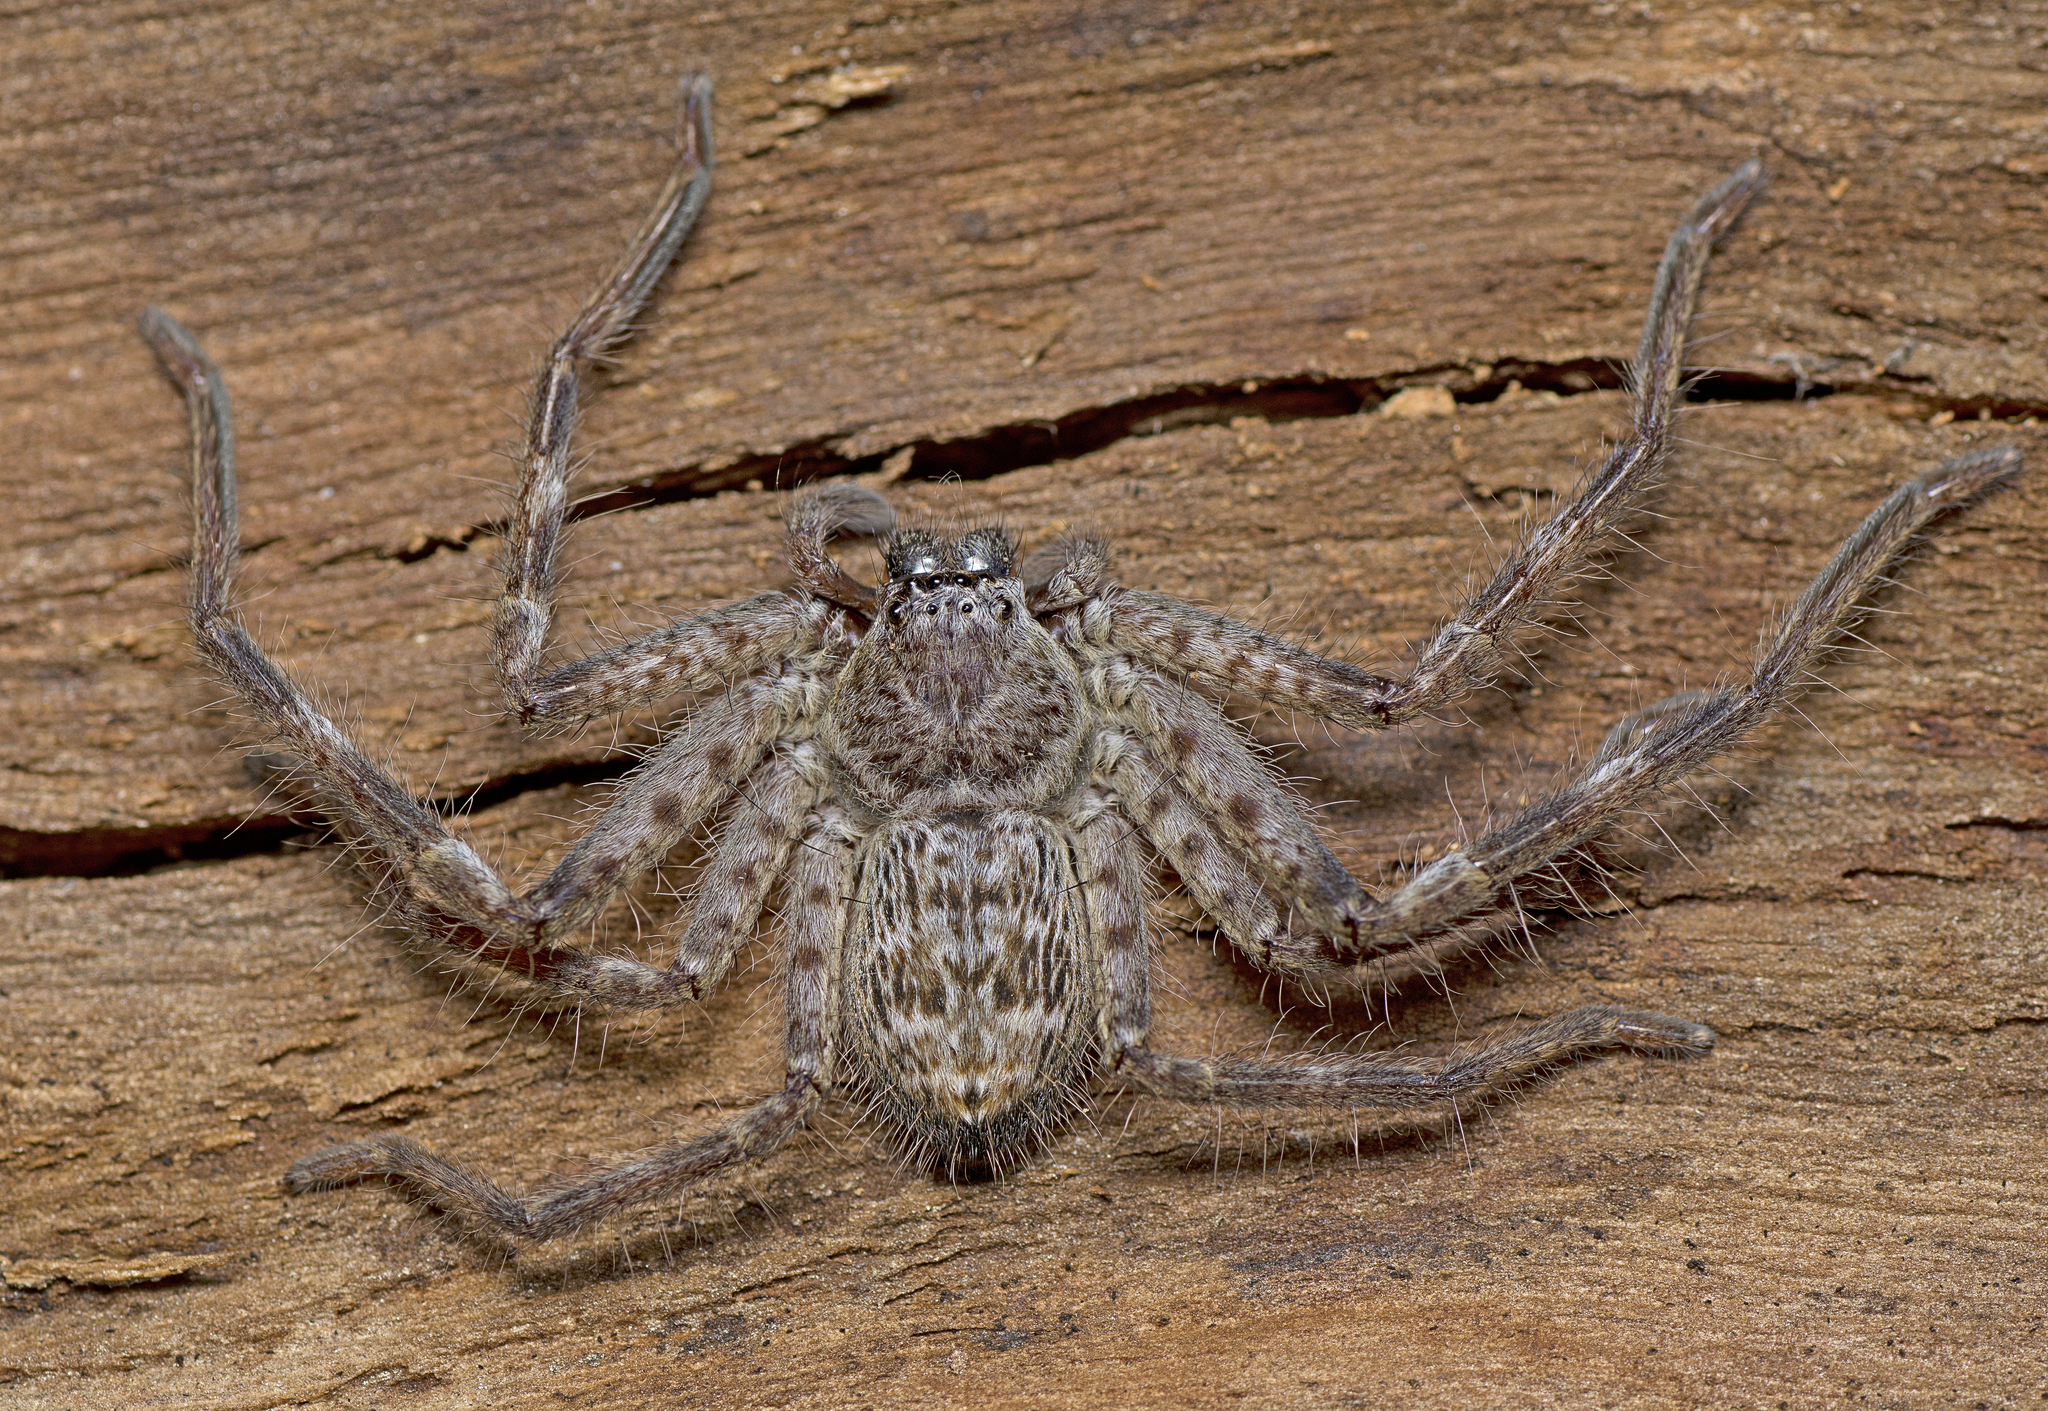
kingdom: Animalia
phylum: Arthropoda
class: Arachnida
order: Araneae
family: Sparassidae
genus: Holconia
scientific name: Holconia insignis
